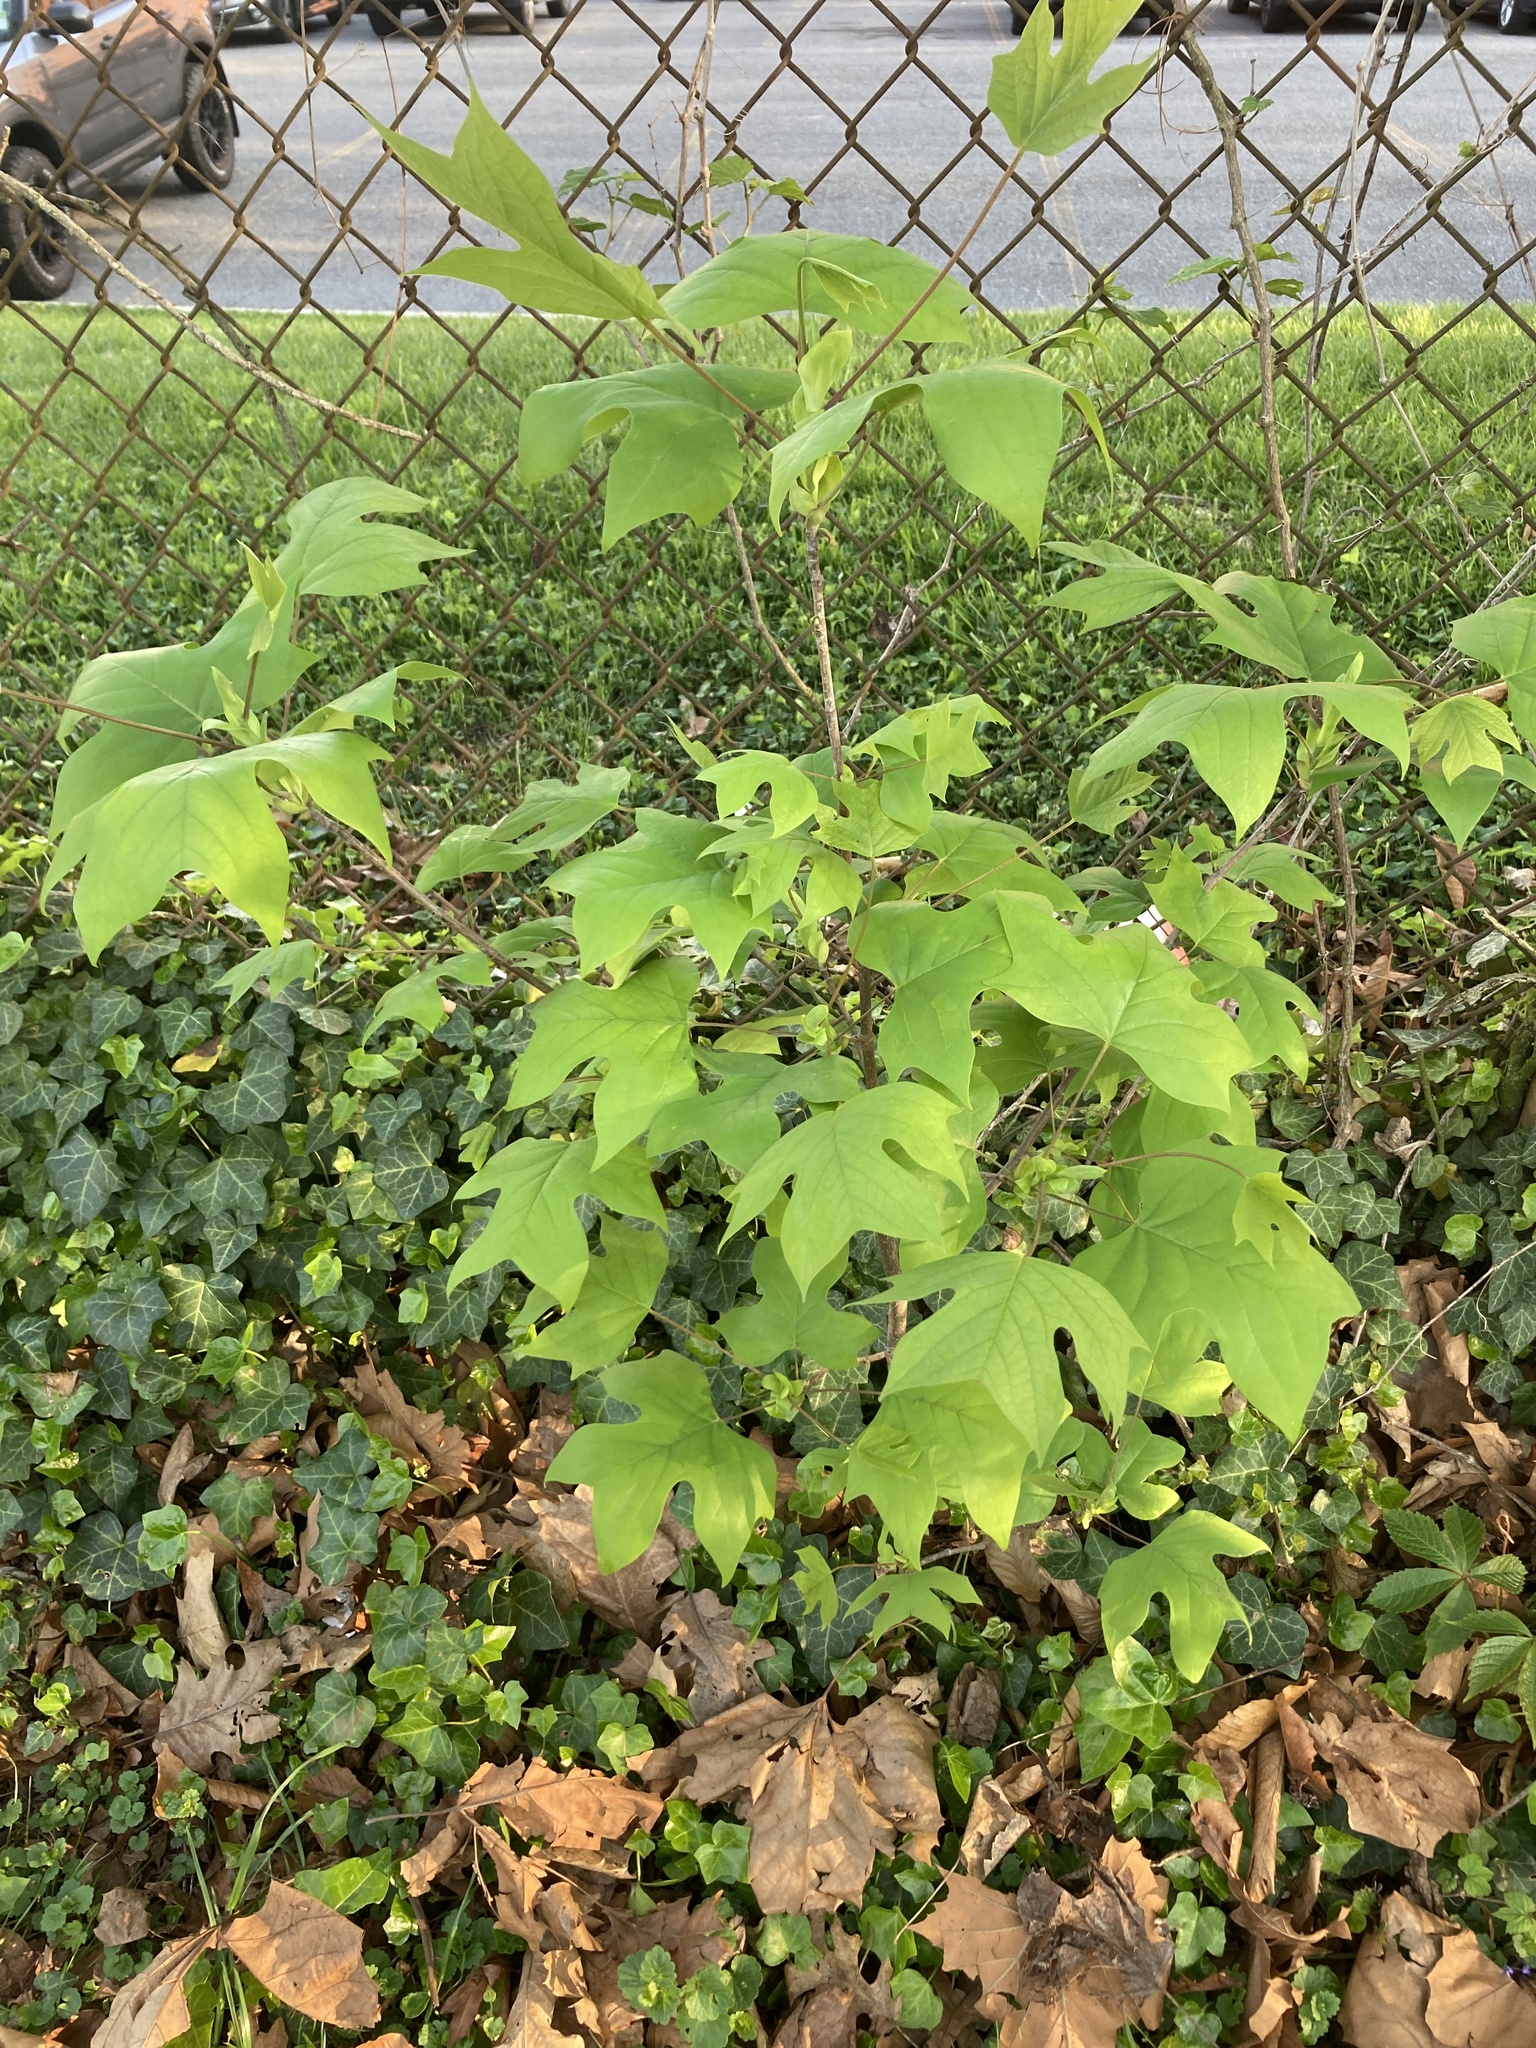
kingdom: Plantae
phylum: Tracheophyta
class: Magnoliopsida
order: Magnoliales
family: Magnoliaceae
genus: Liriodendron
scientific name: Liriodendron tulipifera
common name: Tulip tree
